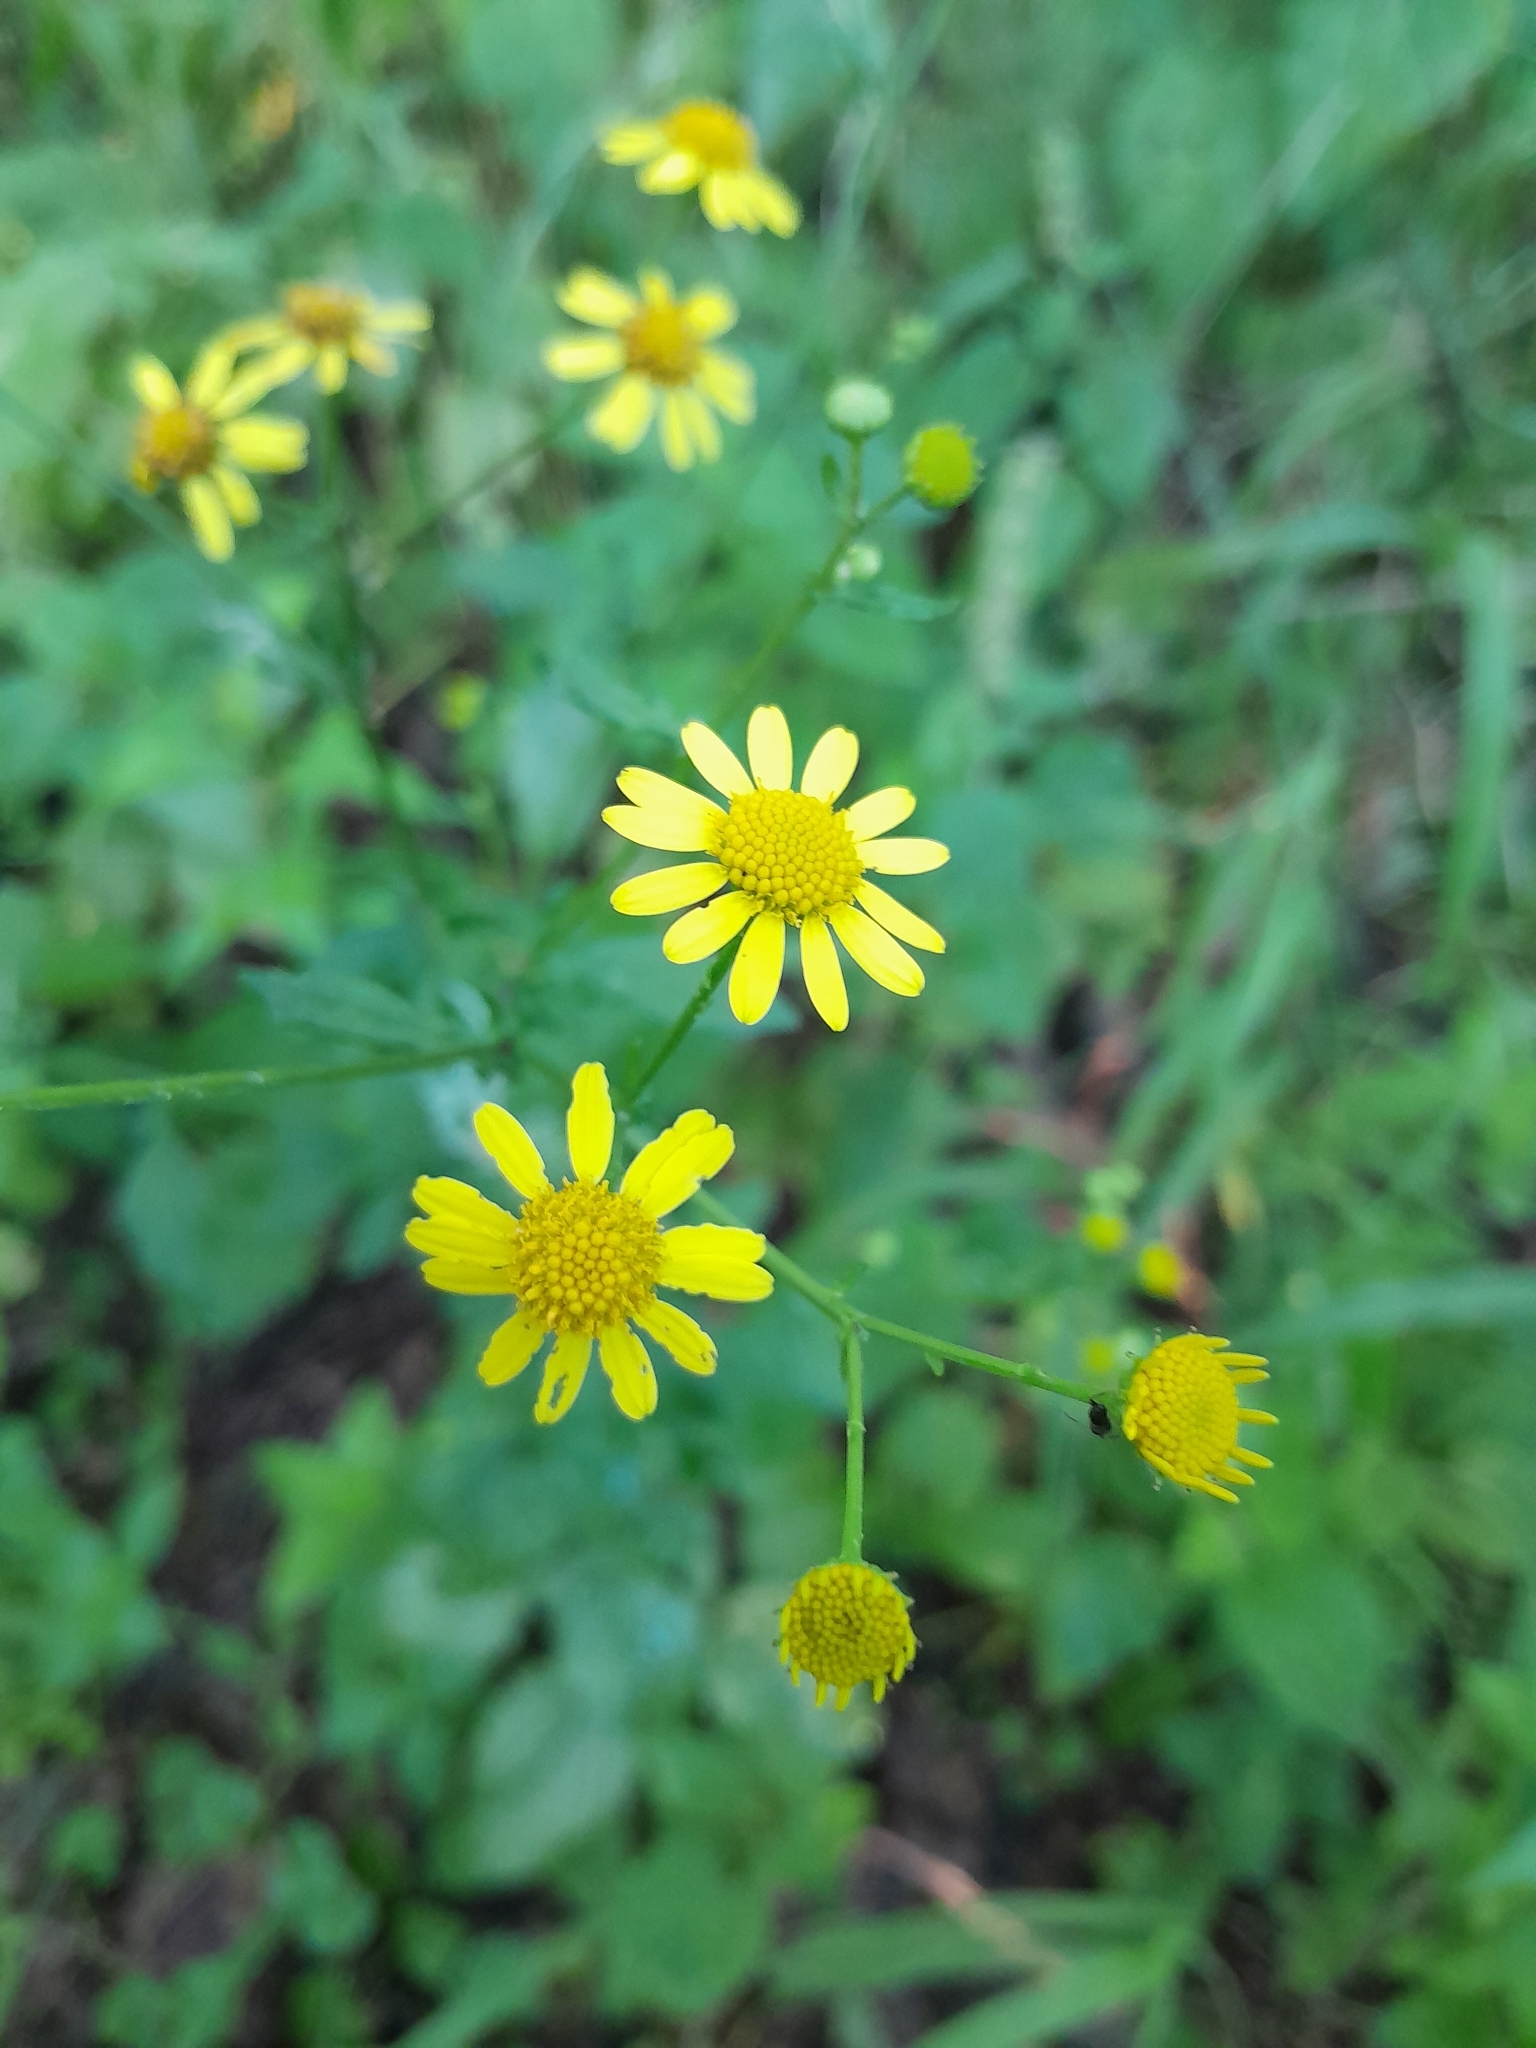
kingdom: Plantae
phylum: Tracheophyta
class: Magnoliopsida
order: Asterales
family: Asteraceae
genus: Jacobaea
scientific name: Jacobaea erratica
